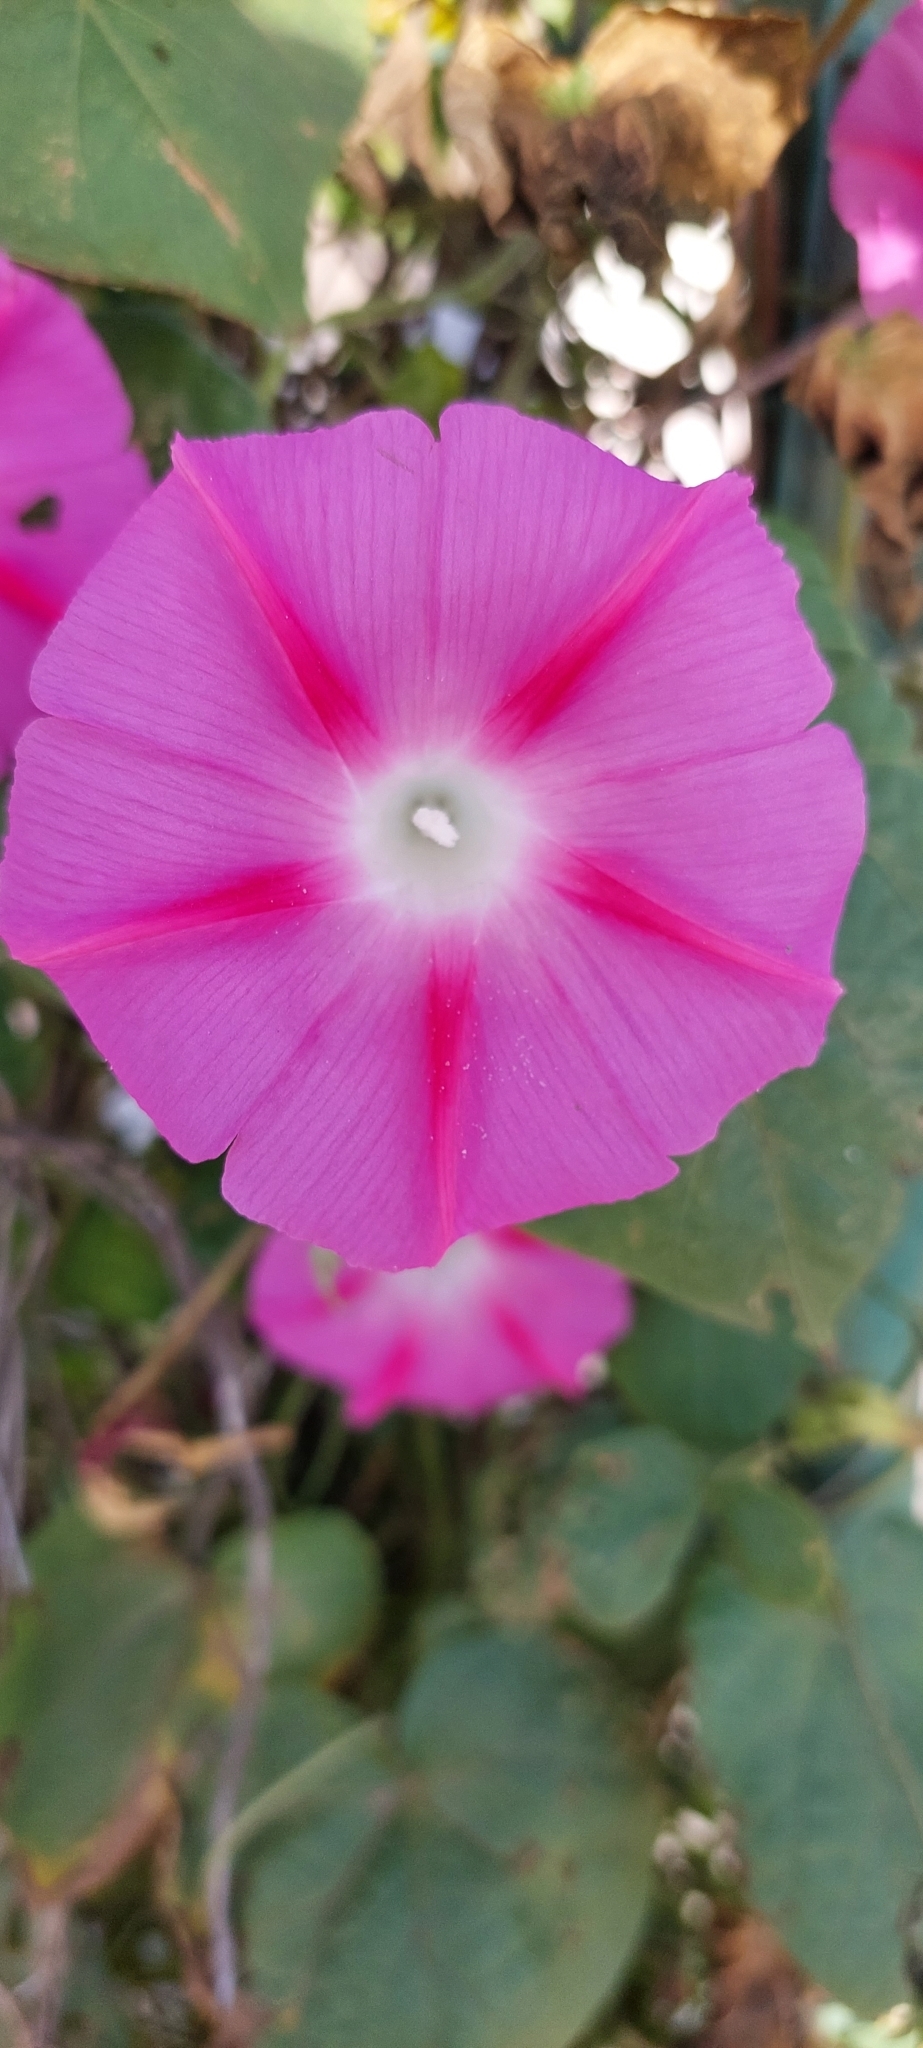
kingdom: Plantae
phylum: Tracheophyta
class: Magnoliopsida
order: Solanales
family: Convolvulaceae
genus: Ipomoea
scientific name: Ipomoea purpurea
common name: Common morning-glory
